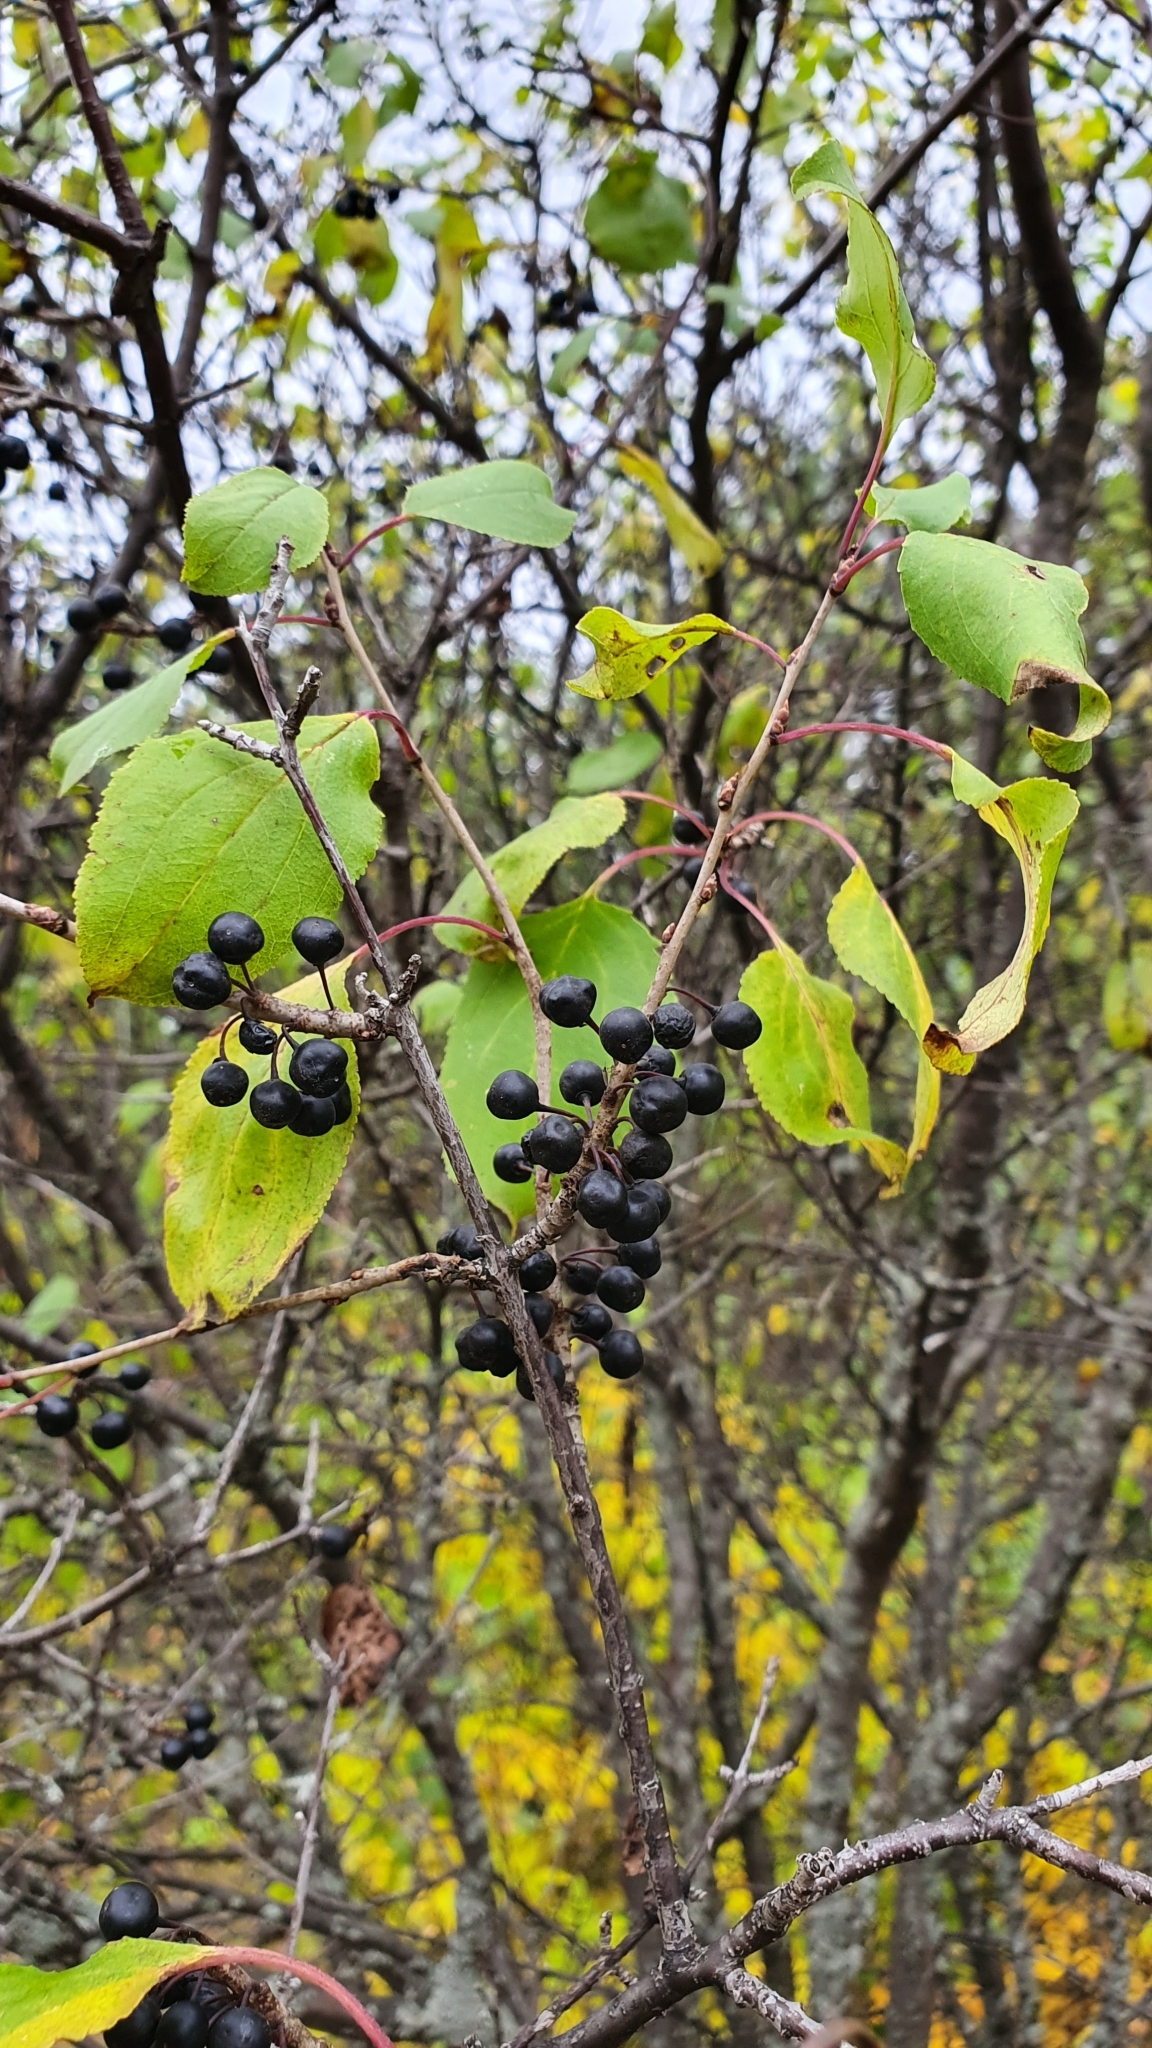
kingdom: Plantae
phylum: Tracheophyta
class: Magnoliopsida
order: Rosales
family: Rhamnaceae
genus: Rhamnus
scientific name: Rhamnus cathartica
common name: Common buckthorn
